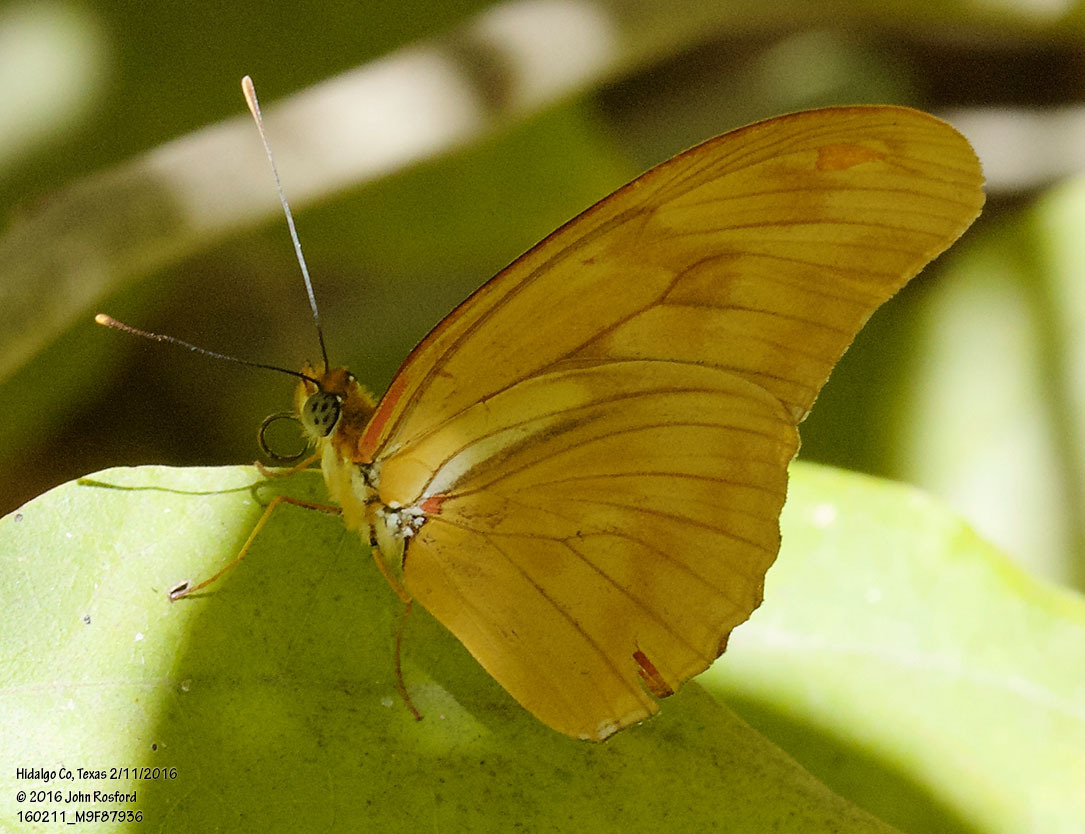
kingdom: Animalia
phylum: Arthropoda
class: Insecta
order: Lepidoptera
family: Nymphalidae
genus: Dryas
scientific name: Dryas iulia
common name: Flambeau
